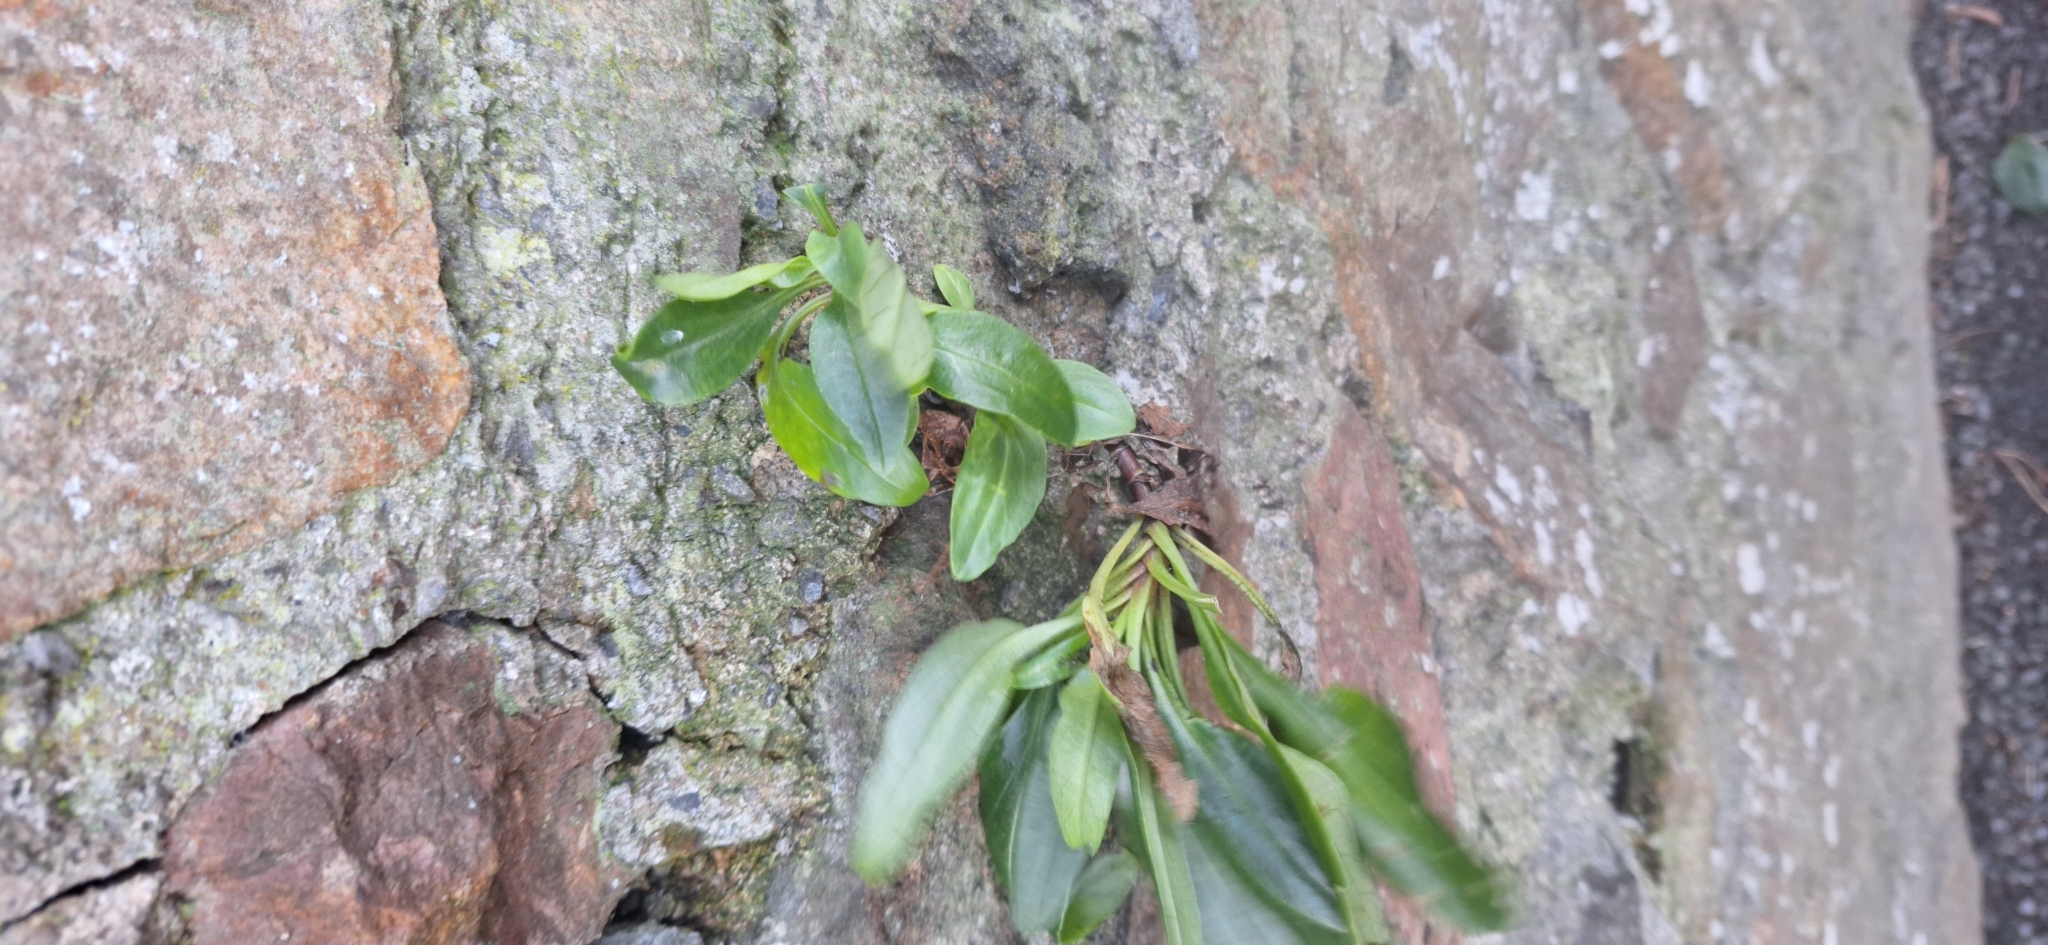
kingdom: Plantae
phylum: Tracheophyta
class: Magnoliopsida
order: Dipsacales
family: Caprifoliaceae
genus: Centranthus
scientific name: Centranthus ruber
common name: Red valerian
